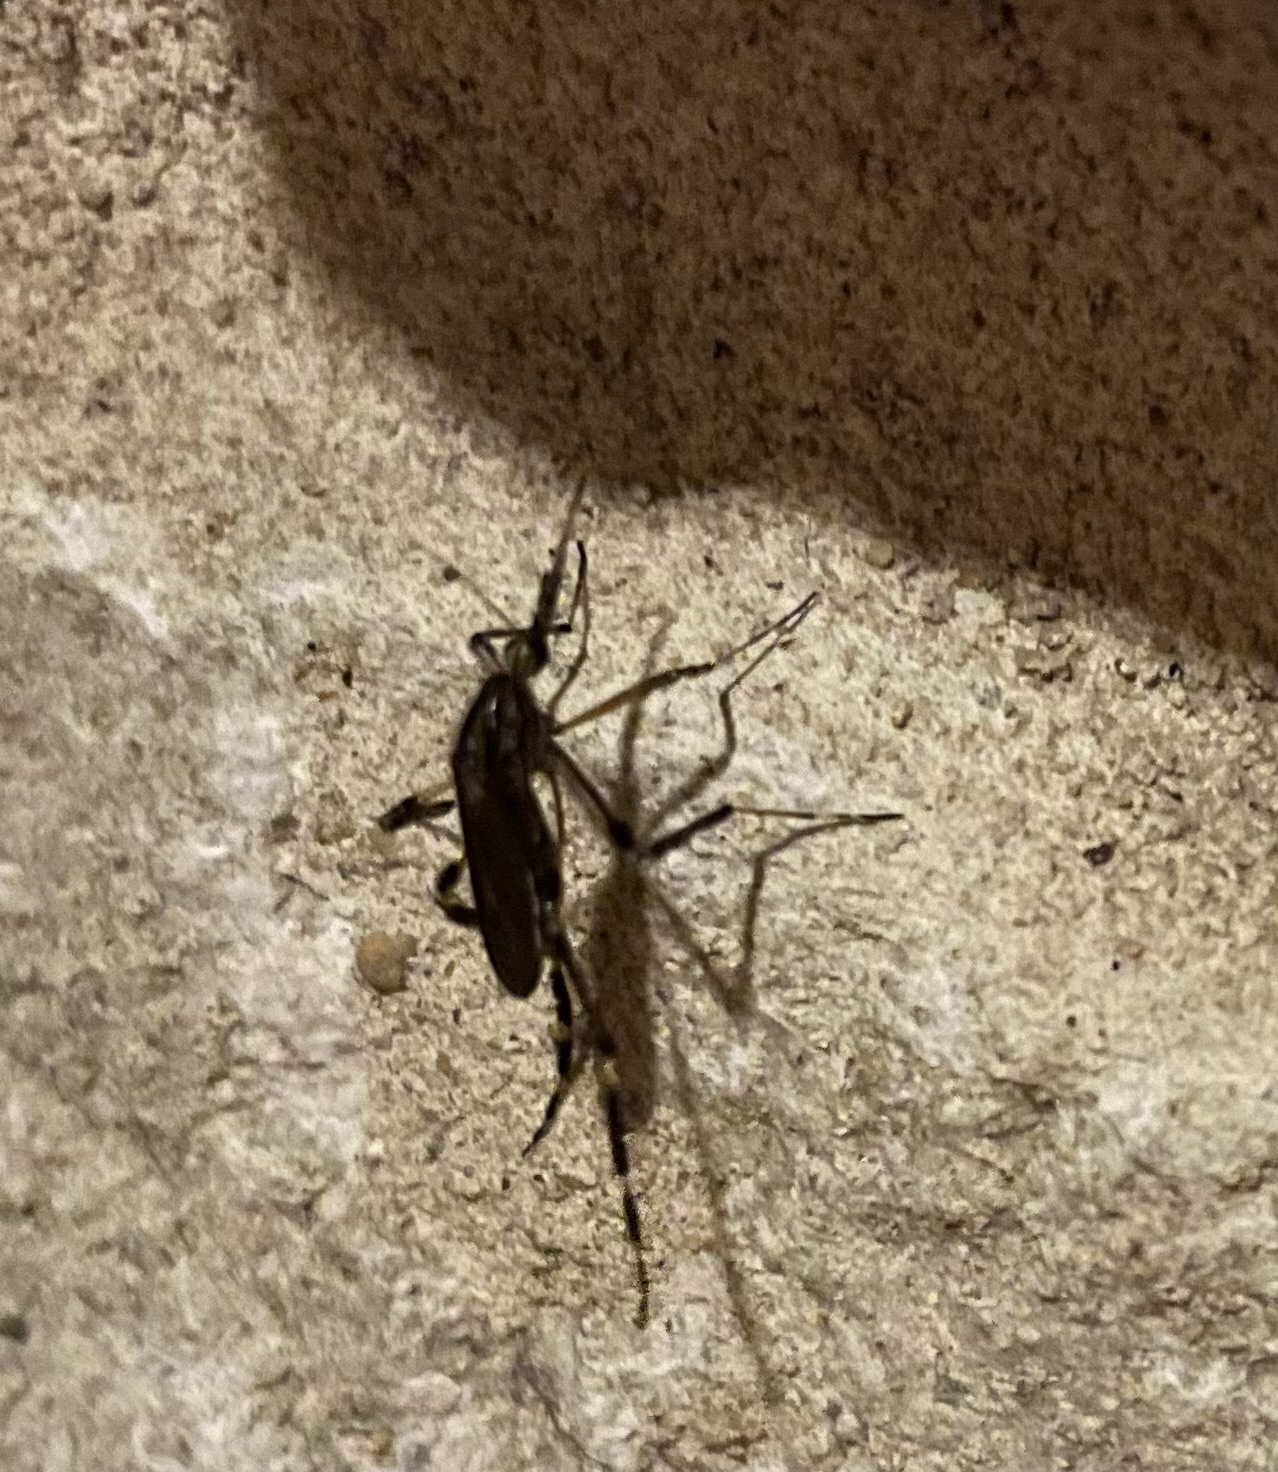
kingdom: Animalia
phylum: Arthropoda
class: Insecta
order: Diptera
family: Culicidae
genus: Psorophora
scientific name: Psorophora ciliata
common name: Gallinipper
